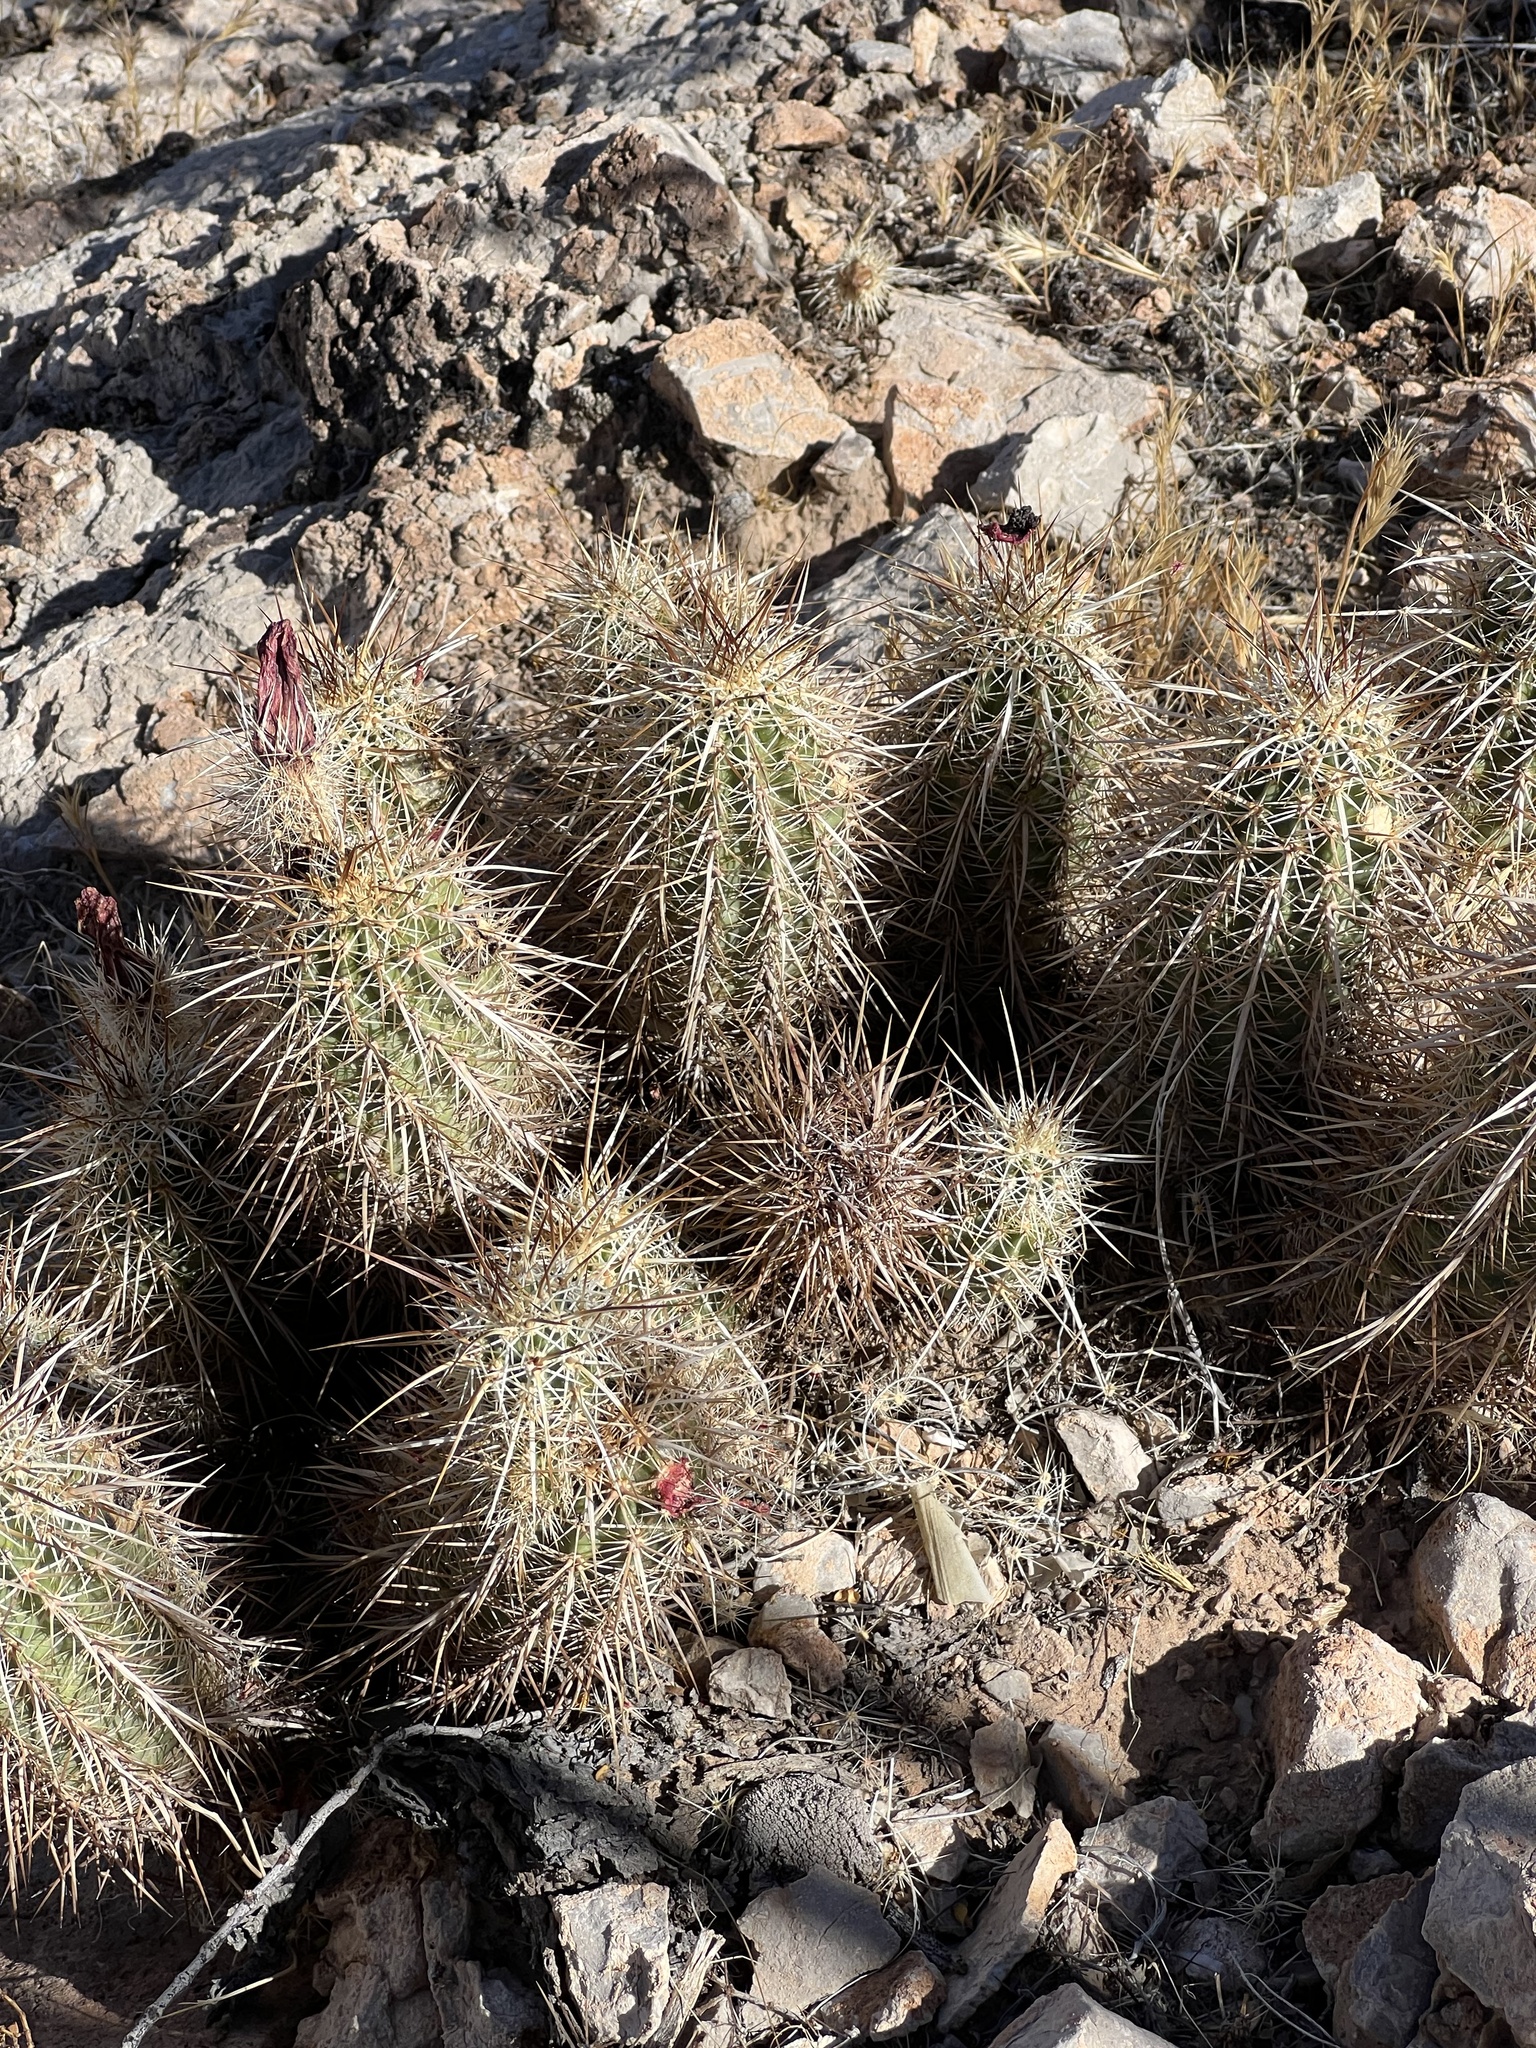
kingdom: Plantae
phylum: Tracheophyta
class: Magnoliopsida
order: Caryophyllales
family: Cactaceae
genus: Echinocereus
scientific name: Echinocereus engelmannii
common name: Engelmann's hedgehog cactus
